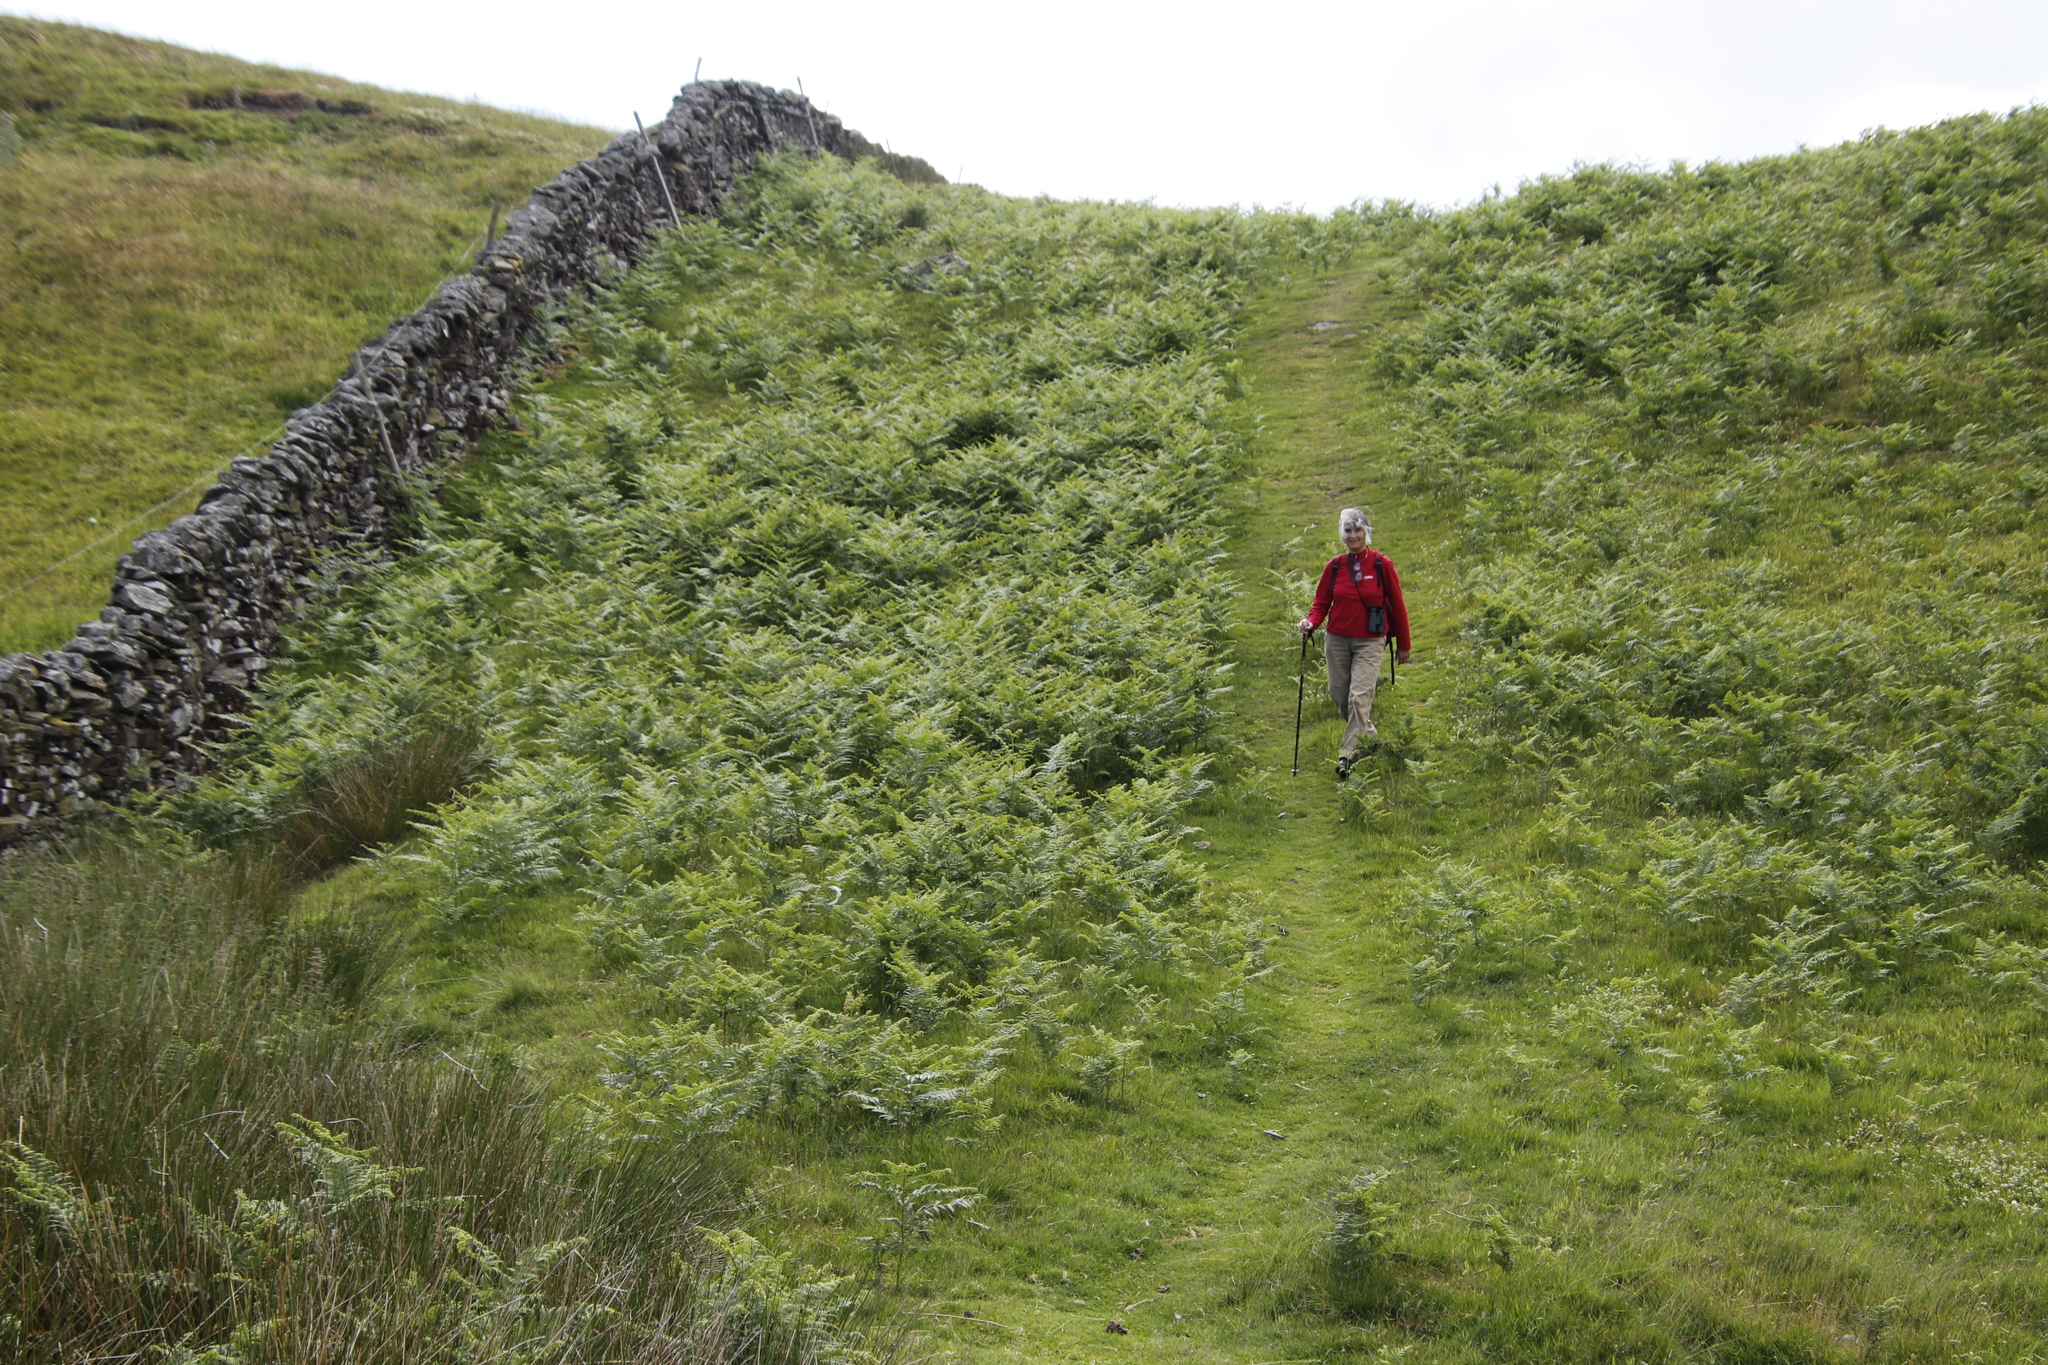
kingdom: Plantae
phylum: Tracheophyta
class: Polypodiopsida
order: Polypodiales
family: Dennstaedtiaceae
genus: Pteridium
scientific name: Pteridium aquilinum
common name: Bracken
